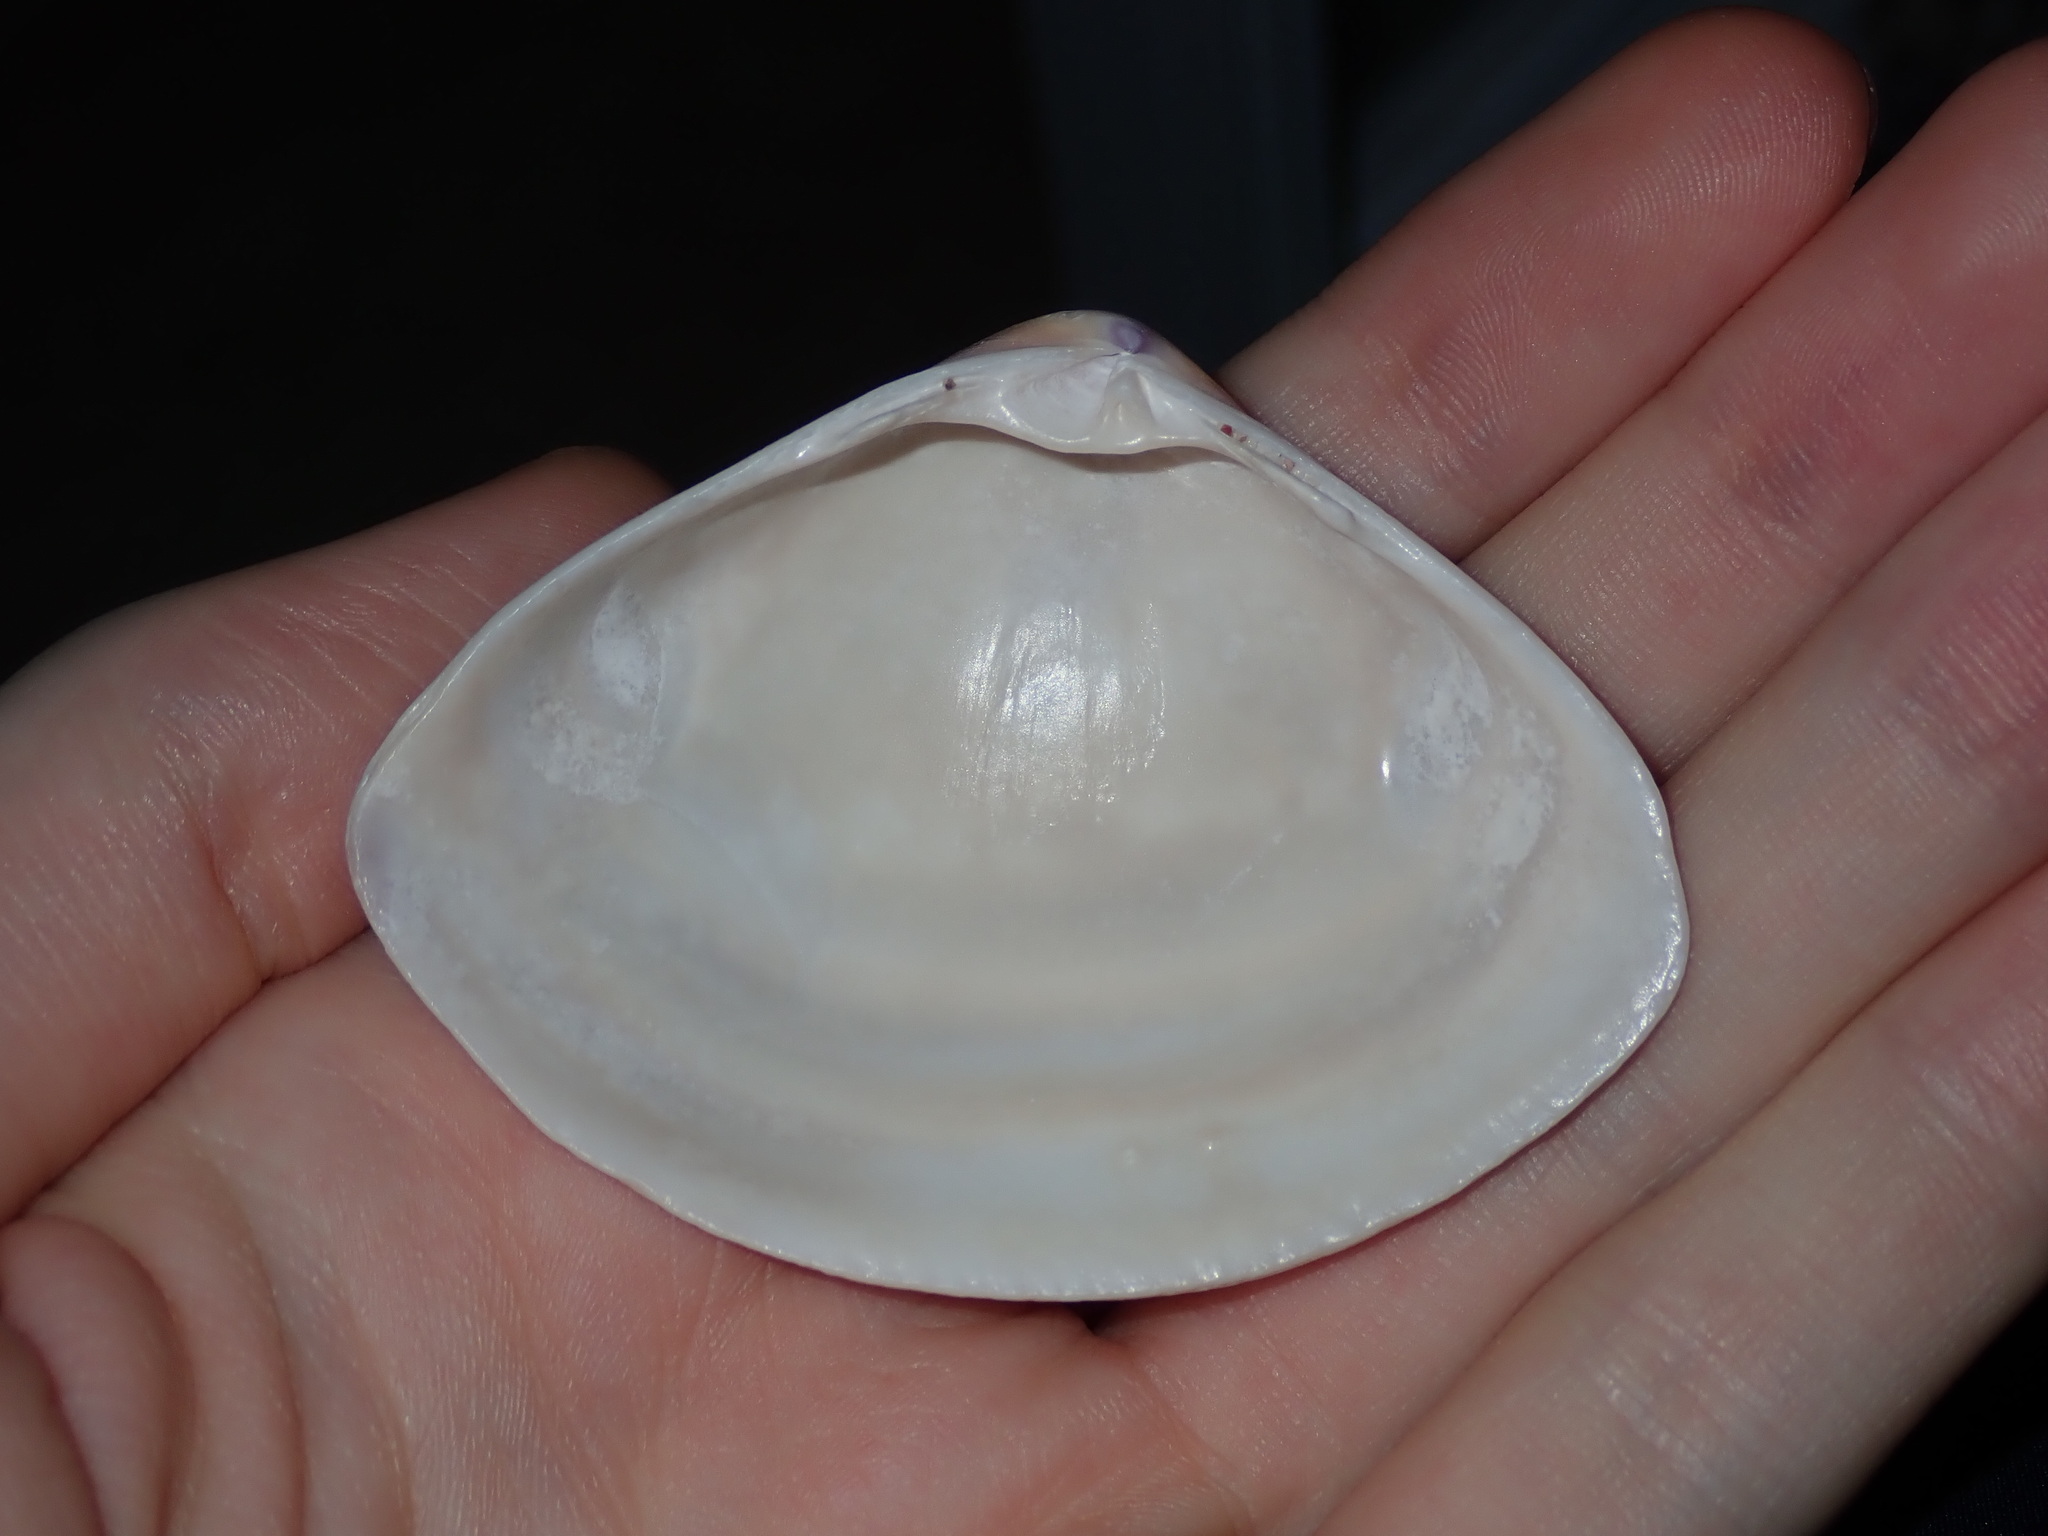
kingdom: Animalia
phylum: Mollusca
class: Bivalvia
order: Venerida
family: Mactridae
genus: Austromactra
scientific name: Austromactra rufescens
